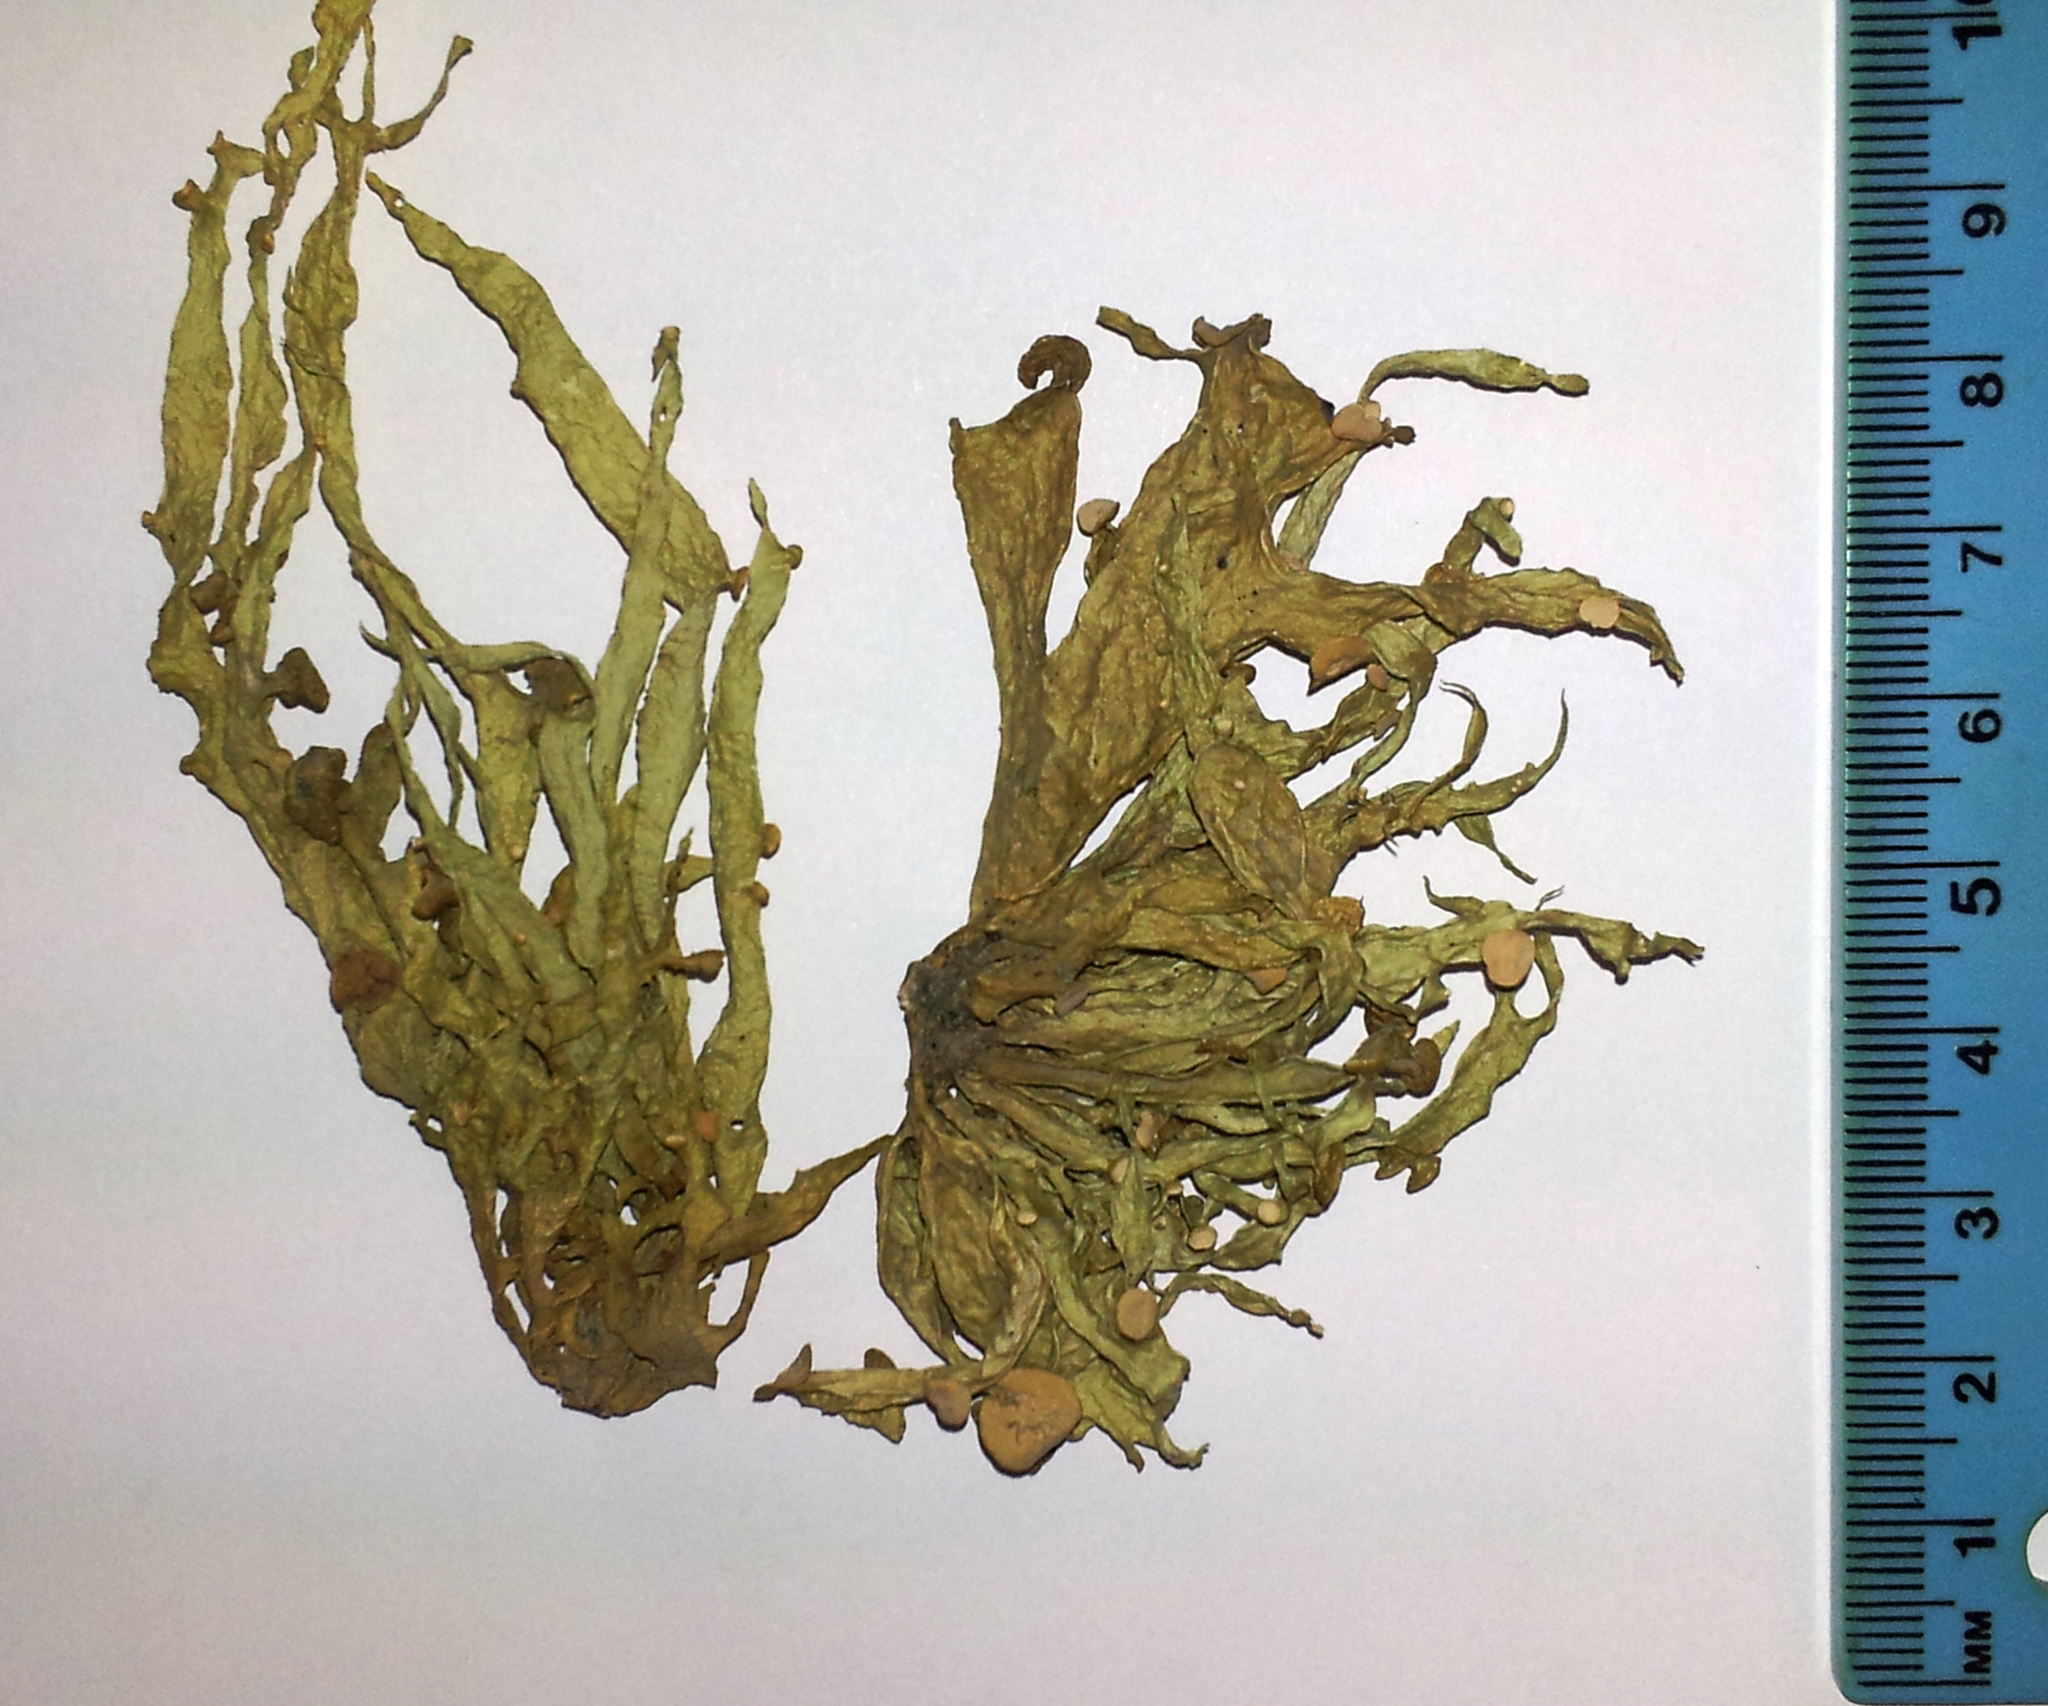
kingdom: Fungi
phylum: Ascomycota
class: Lecanoromycetes
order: Lecanorales
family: Ramalinaceae
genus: Ramalina
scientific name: Ramalina inflexa
